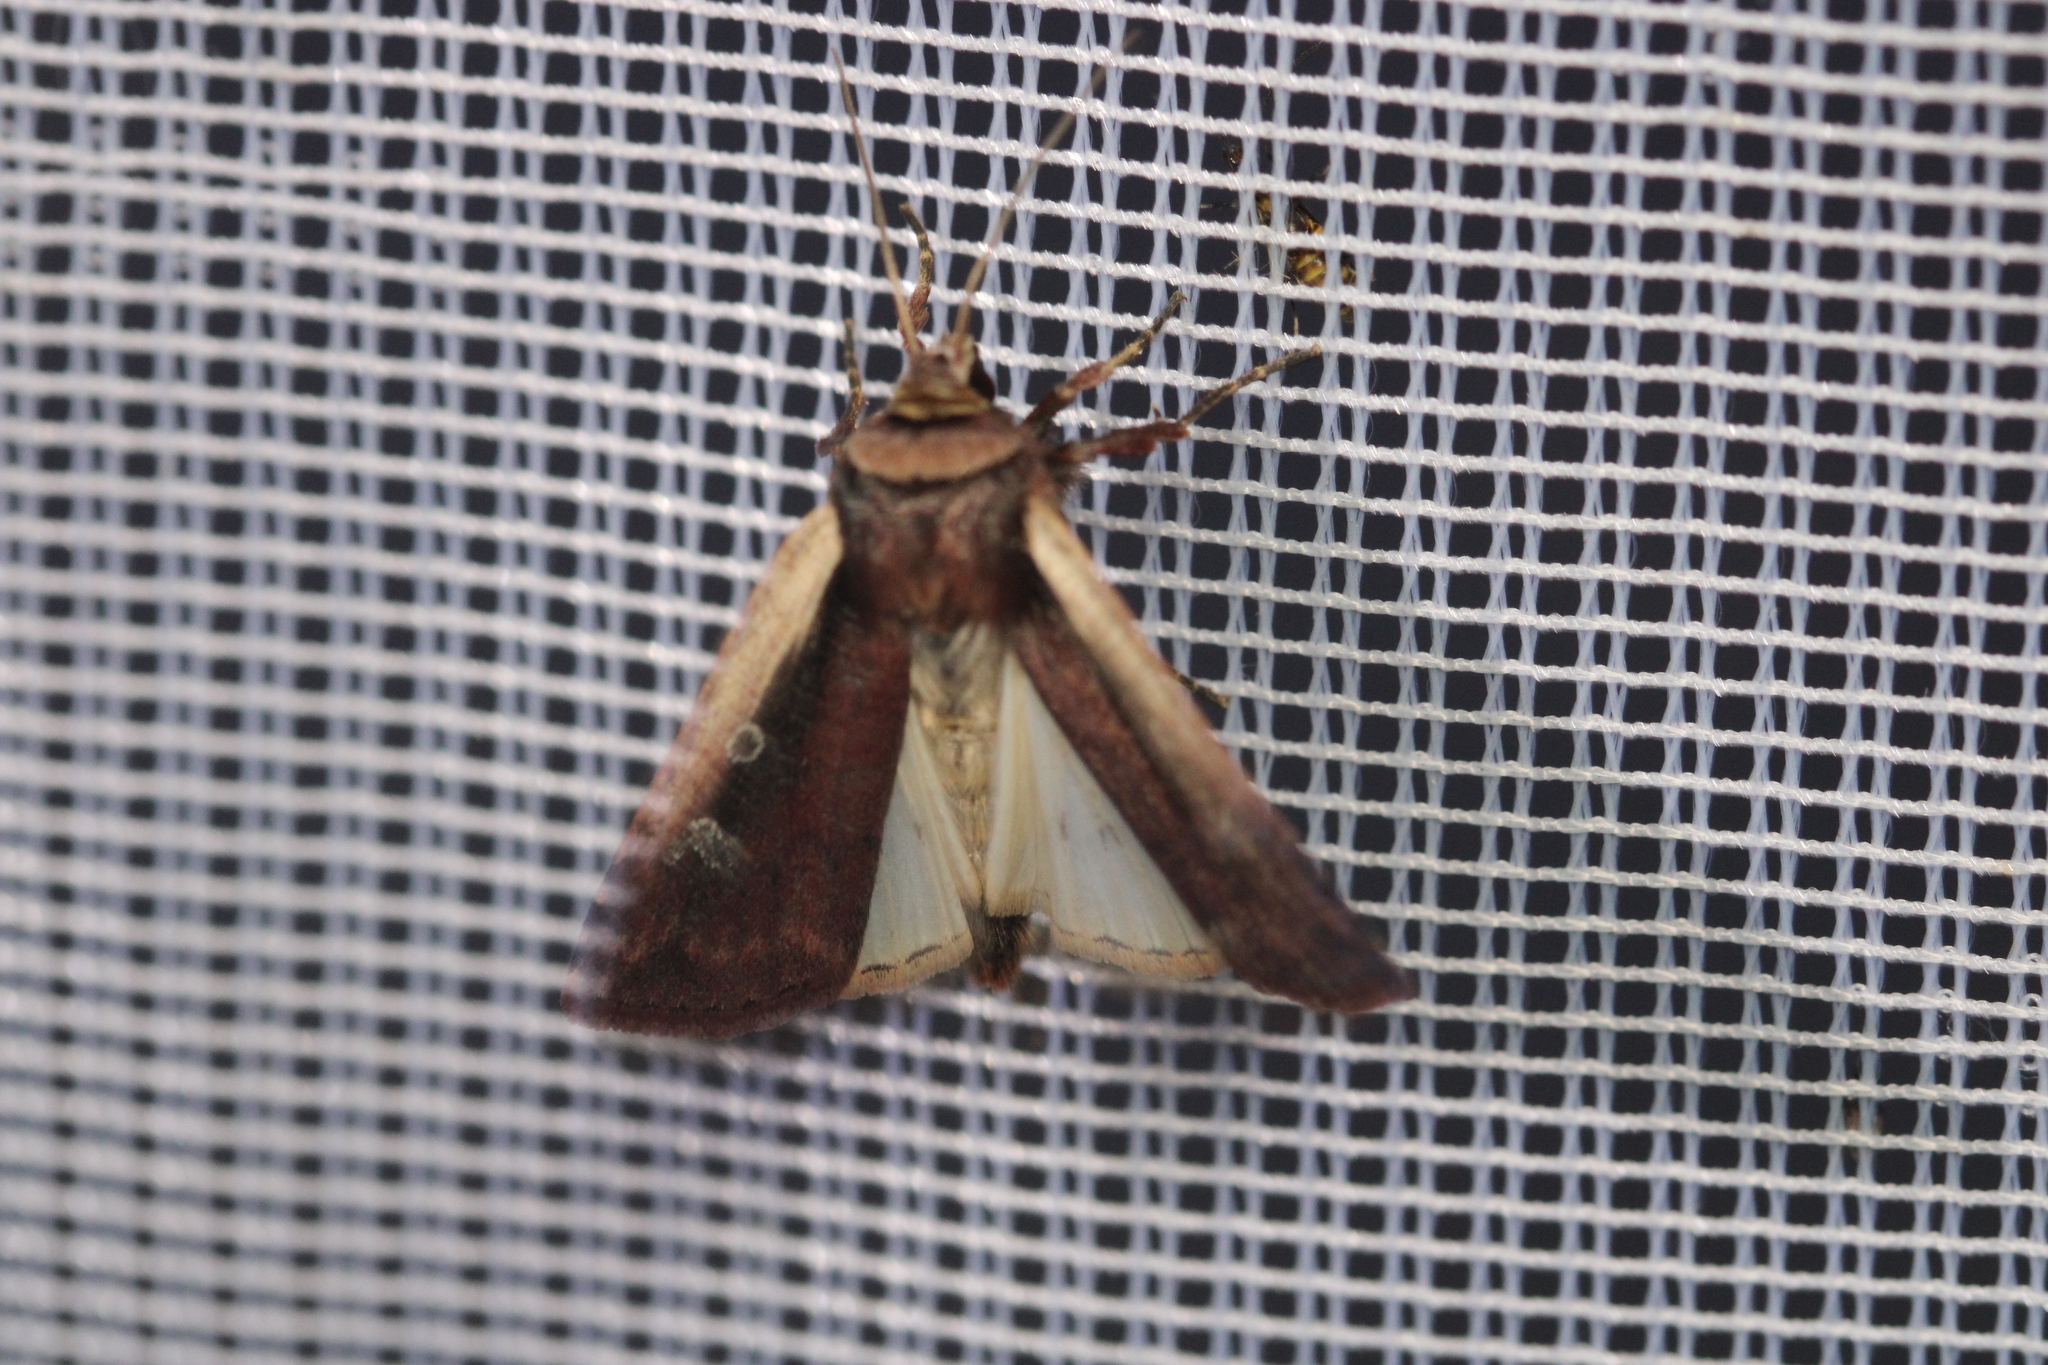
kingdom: Animalia
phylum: Arthropoda
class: Insecta
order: Lepidoptera
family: Noctuidae
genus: Ochropleura
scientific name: Ochropleura plecta
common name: Flame shoulder
